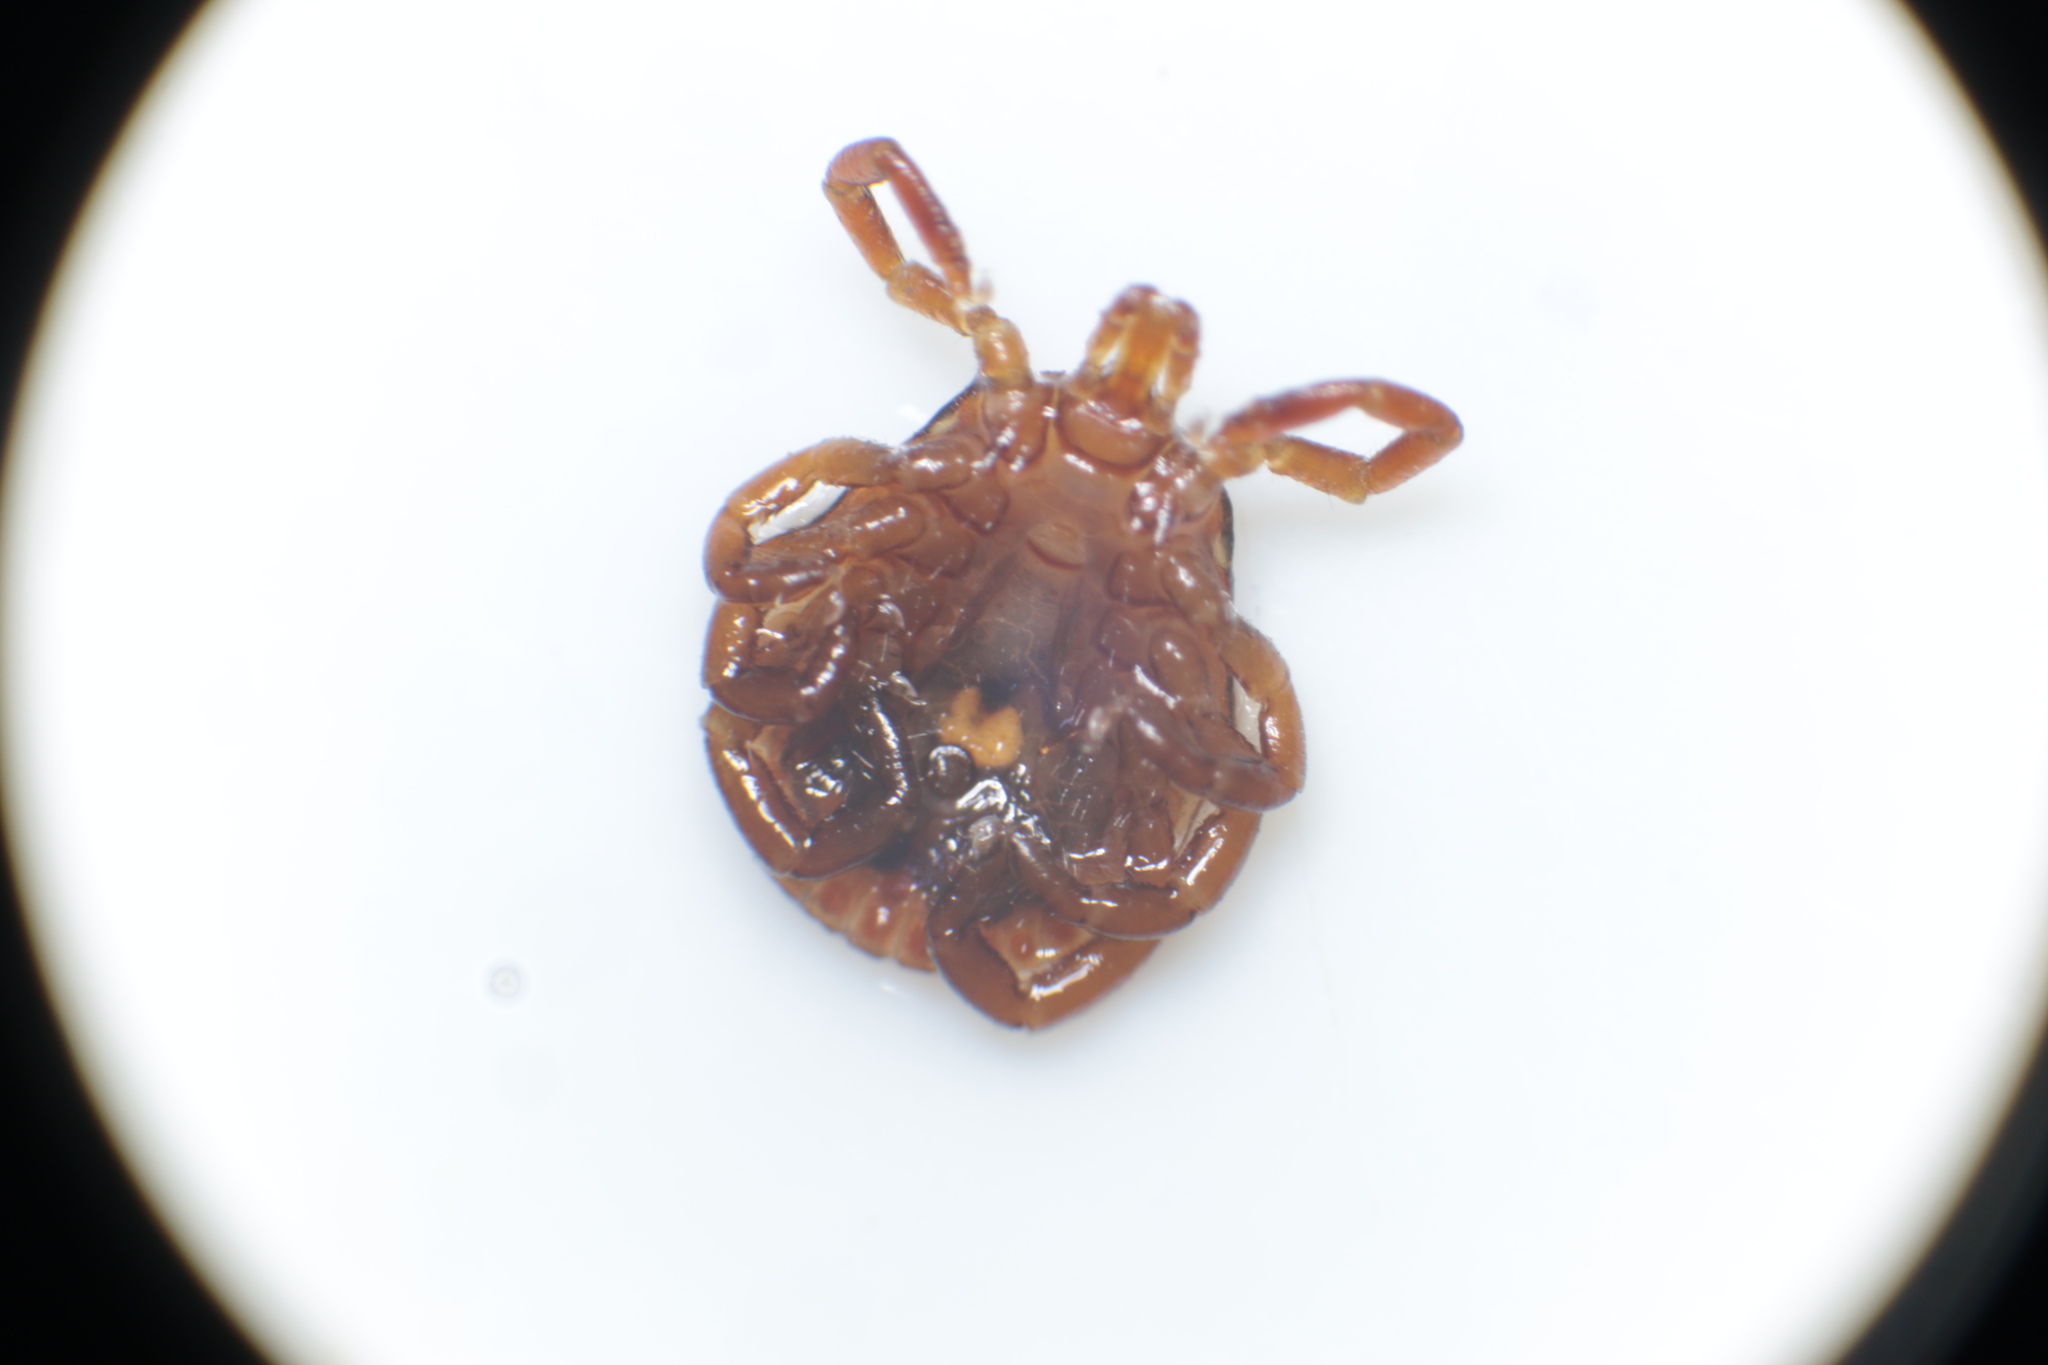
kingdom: Animalia
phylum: Arthropoda
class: Arachnida
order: Ixodida
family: Ixodidae
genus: Amblyomma
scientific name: Amblyomma americanum
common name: Lone star tick
